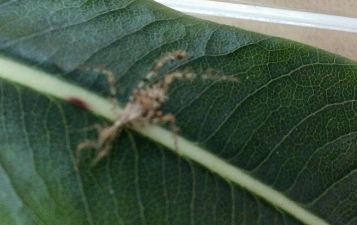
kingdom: Animalia
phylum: Arthropoda
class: Insecta
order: Hemiptera
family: Reduviidae
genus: Stenolemus
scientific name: Stenolemus fraterculus
